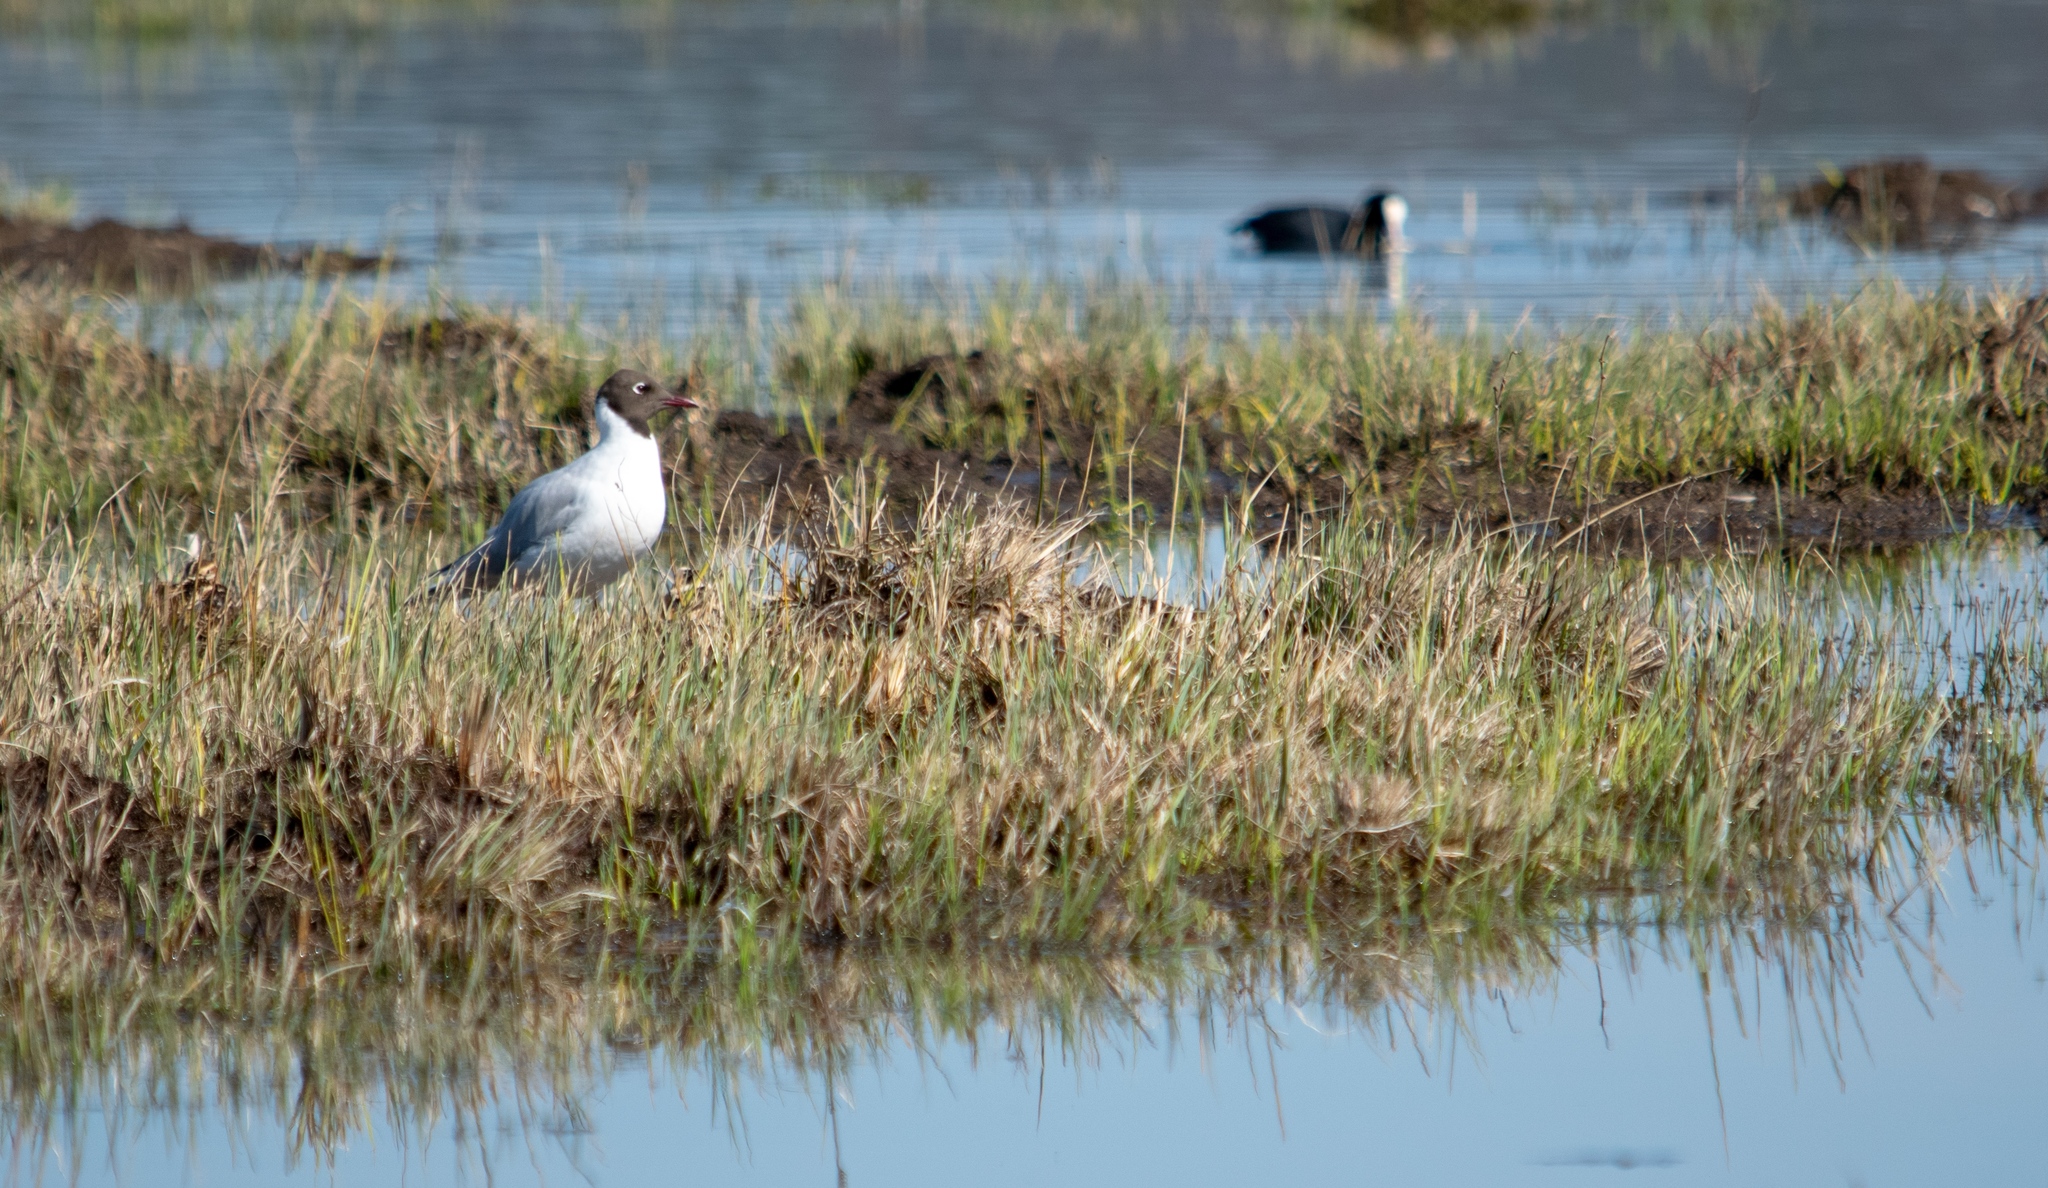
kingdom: Animalia
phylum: Chordata
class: Aves
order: Charadriiformes
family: Laridae
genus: Chroicocephalus
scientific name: Chroicocephalus ridibundus
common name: Black-headed gull
